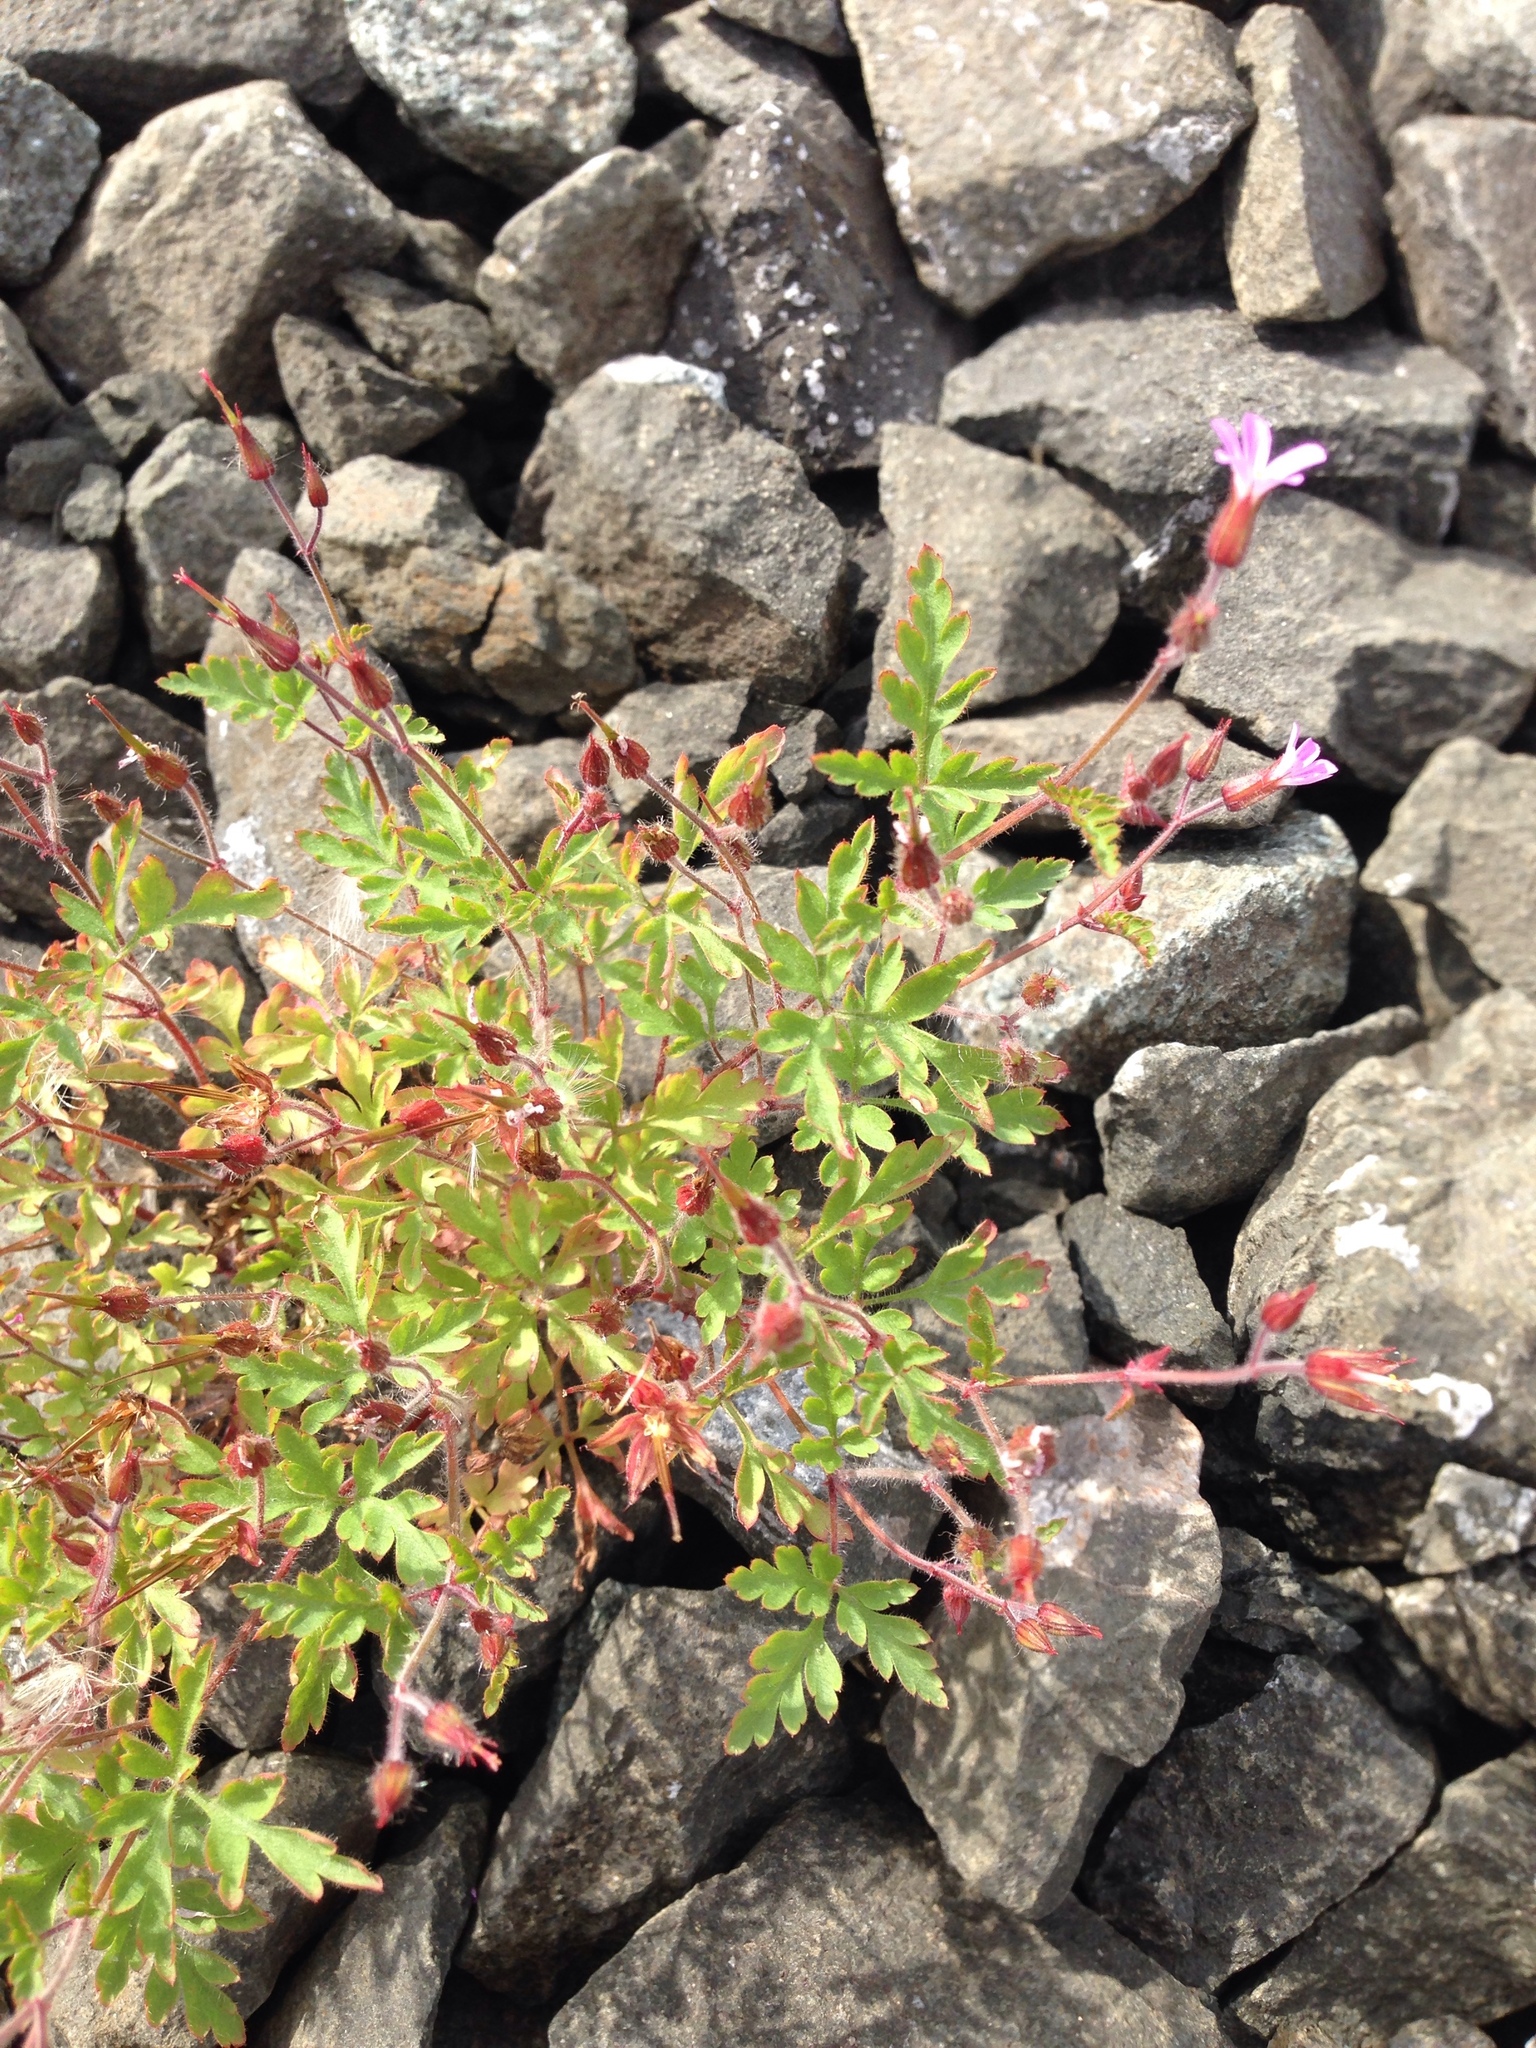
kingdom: Plantae
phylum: Tracheophyta
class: Magnoliopsida
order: Geraniales
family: Geraniaceae
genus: Geranium
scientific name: Geranium robertianum
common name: Herb-robert
